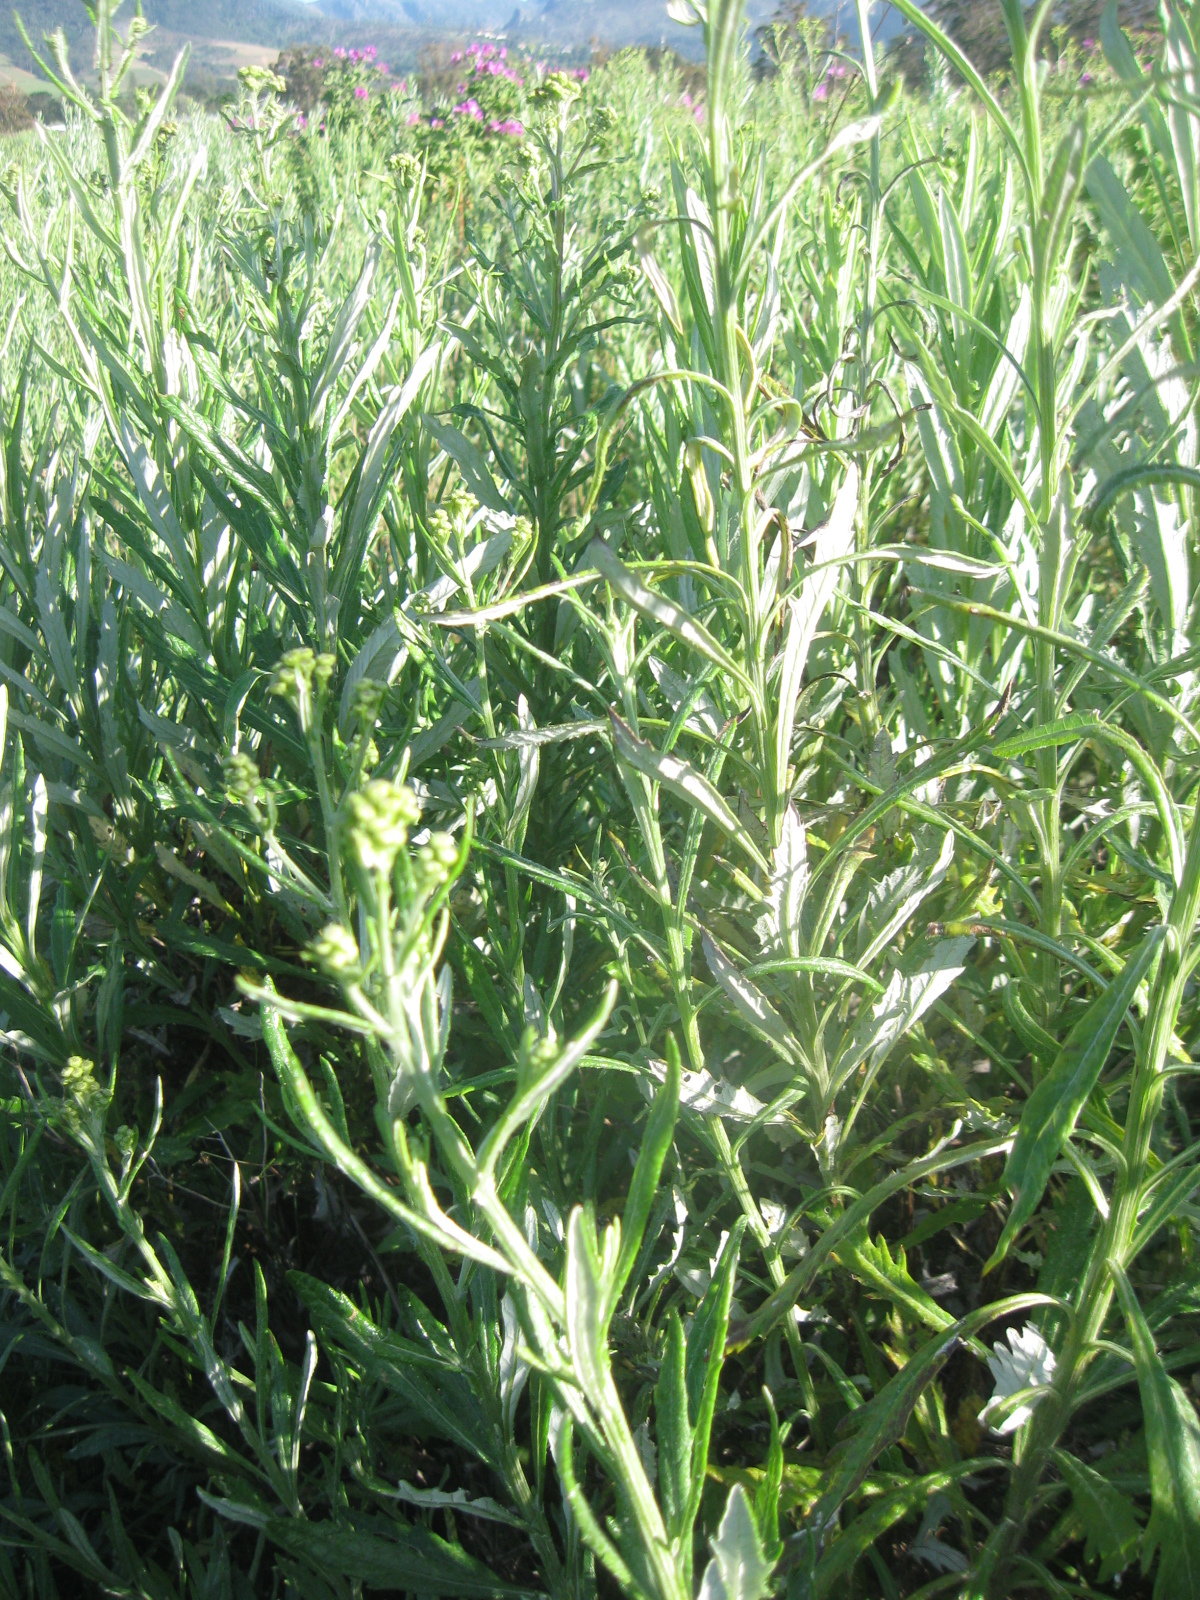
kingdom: Plantae
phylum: Tracheophyta
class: Magnoliopsida
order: Asterales
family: Asteraceae
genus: Senecio
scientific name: Senecio pterophorus
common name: Shoddy ragwort
